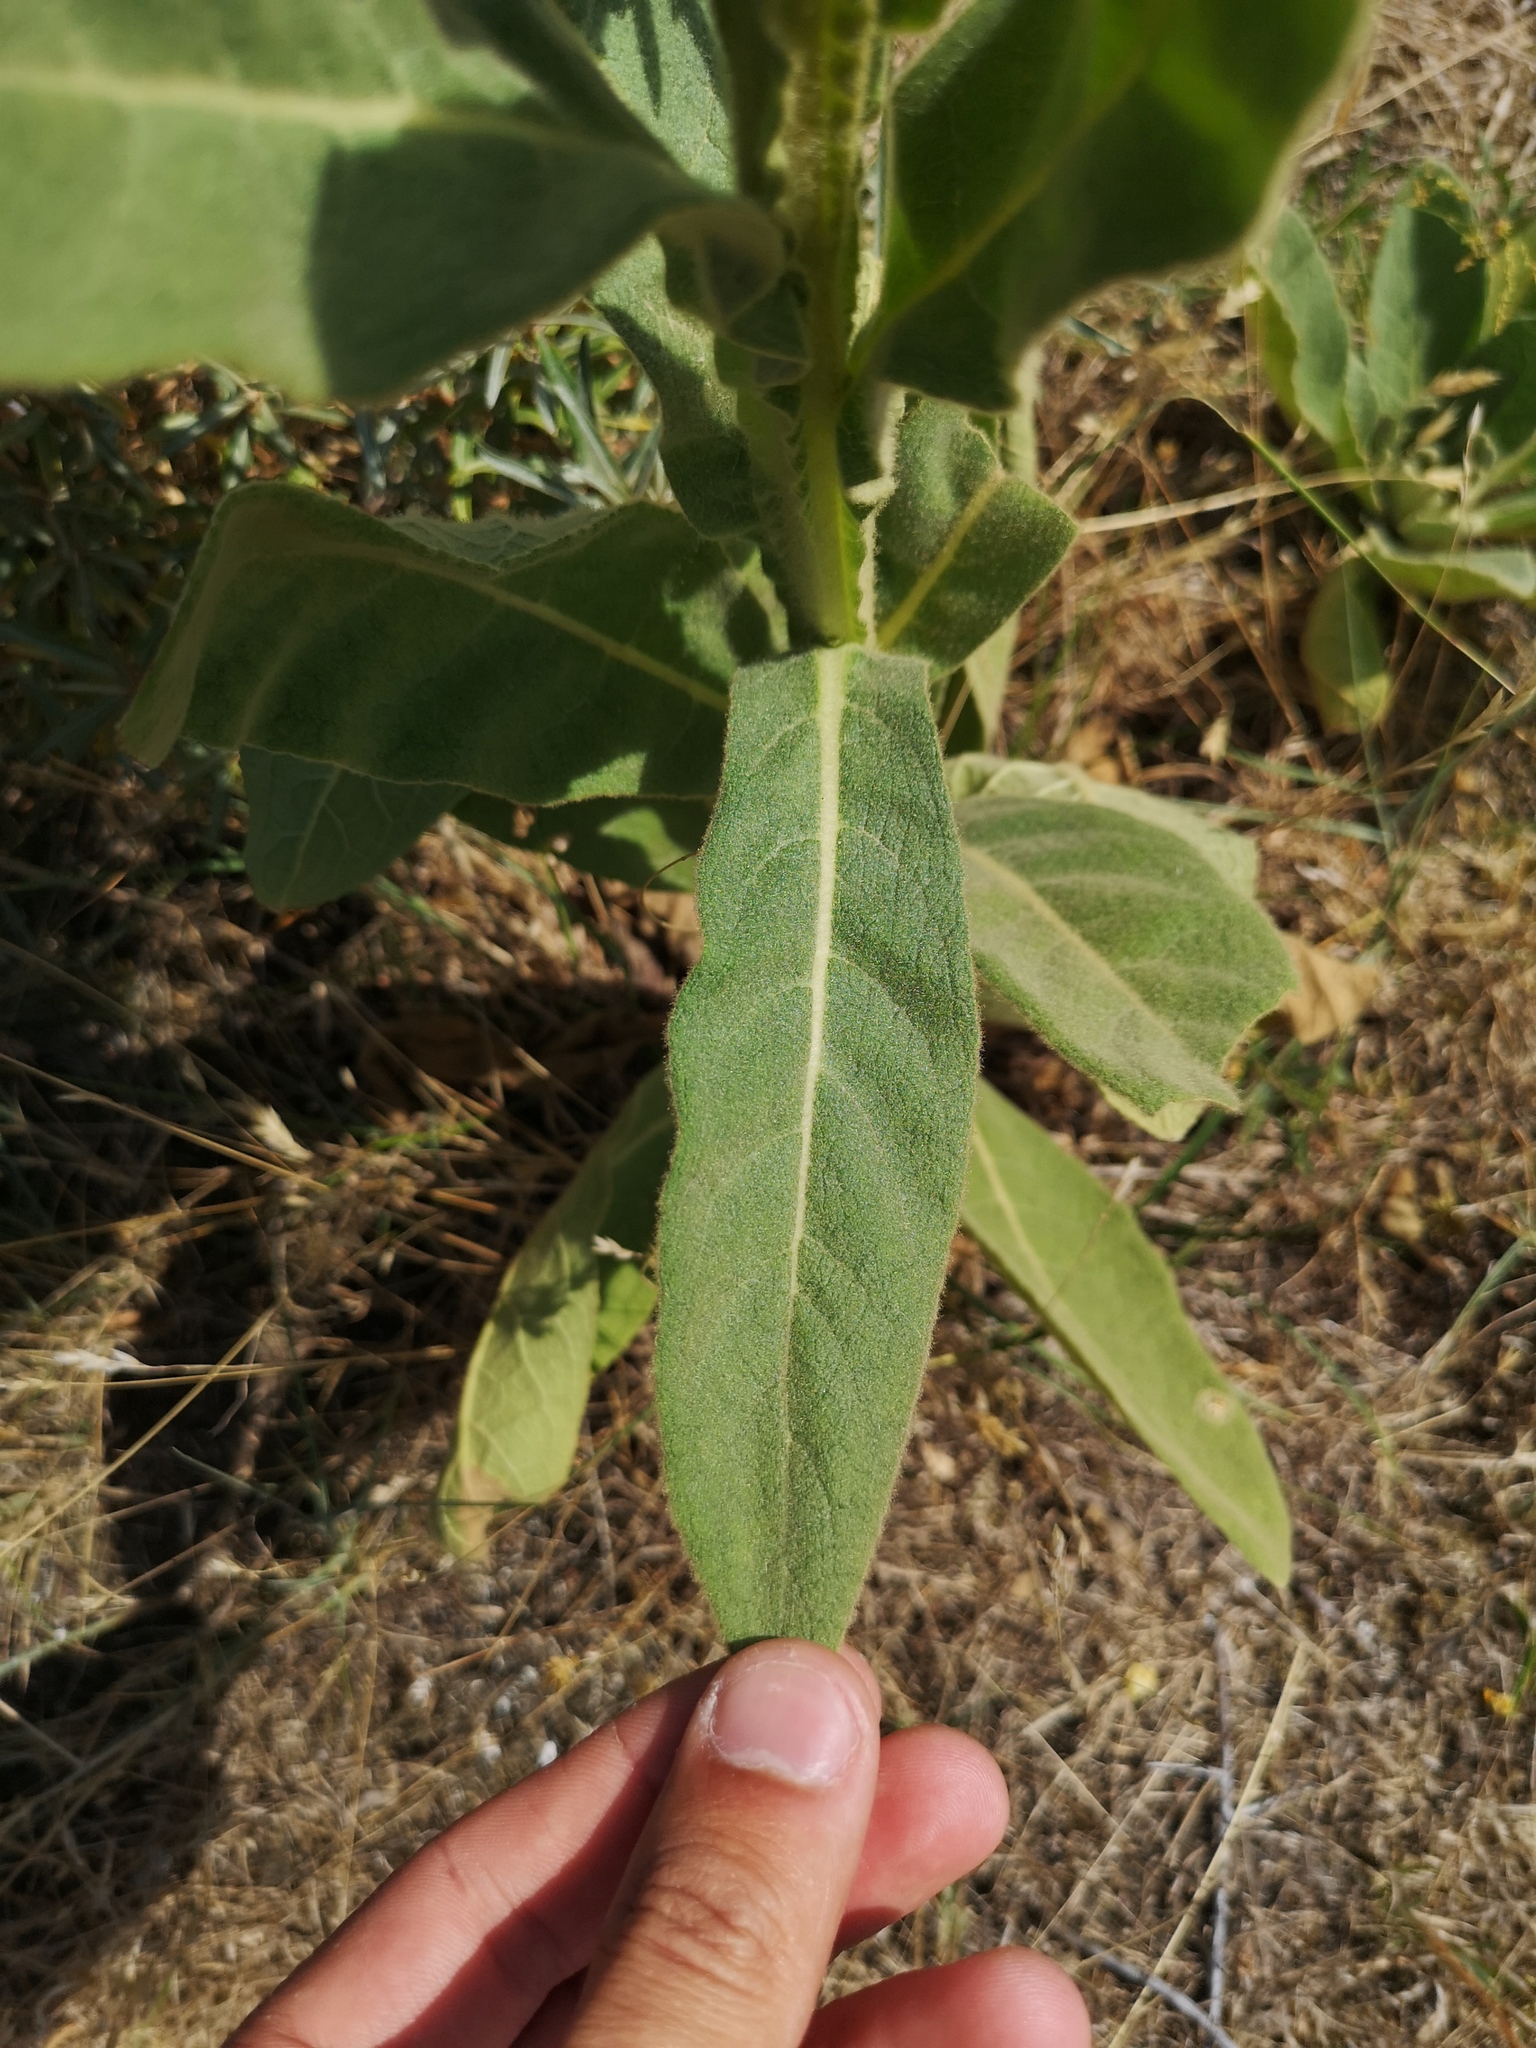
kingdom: Plantae
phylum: Tracheophyta
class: Magnoliopsida
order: Lamiales
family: Scrophulariaceae
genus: Verbascum
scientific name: Verbascum thapsus
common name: Common mullein
